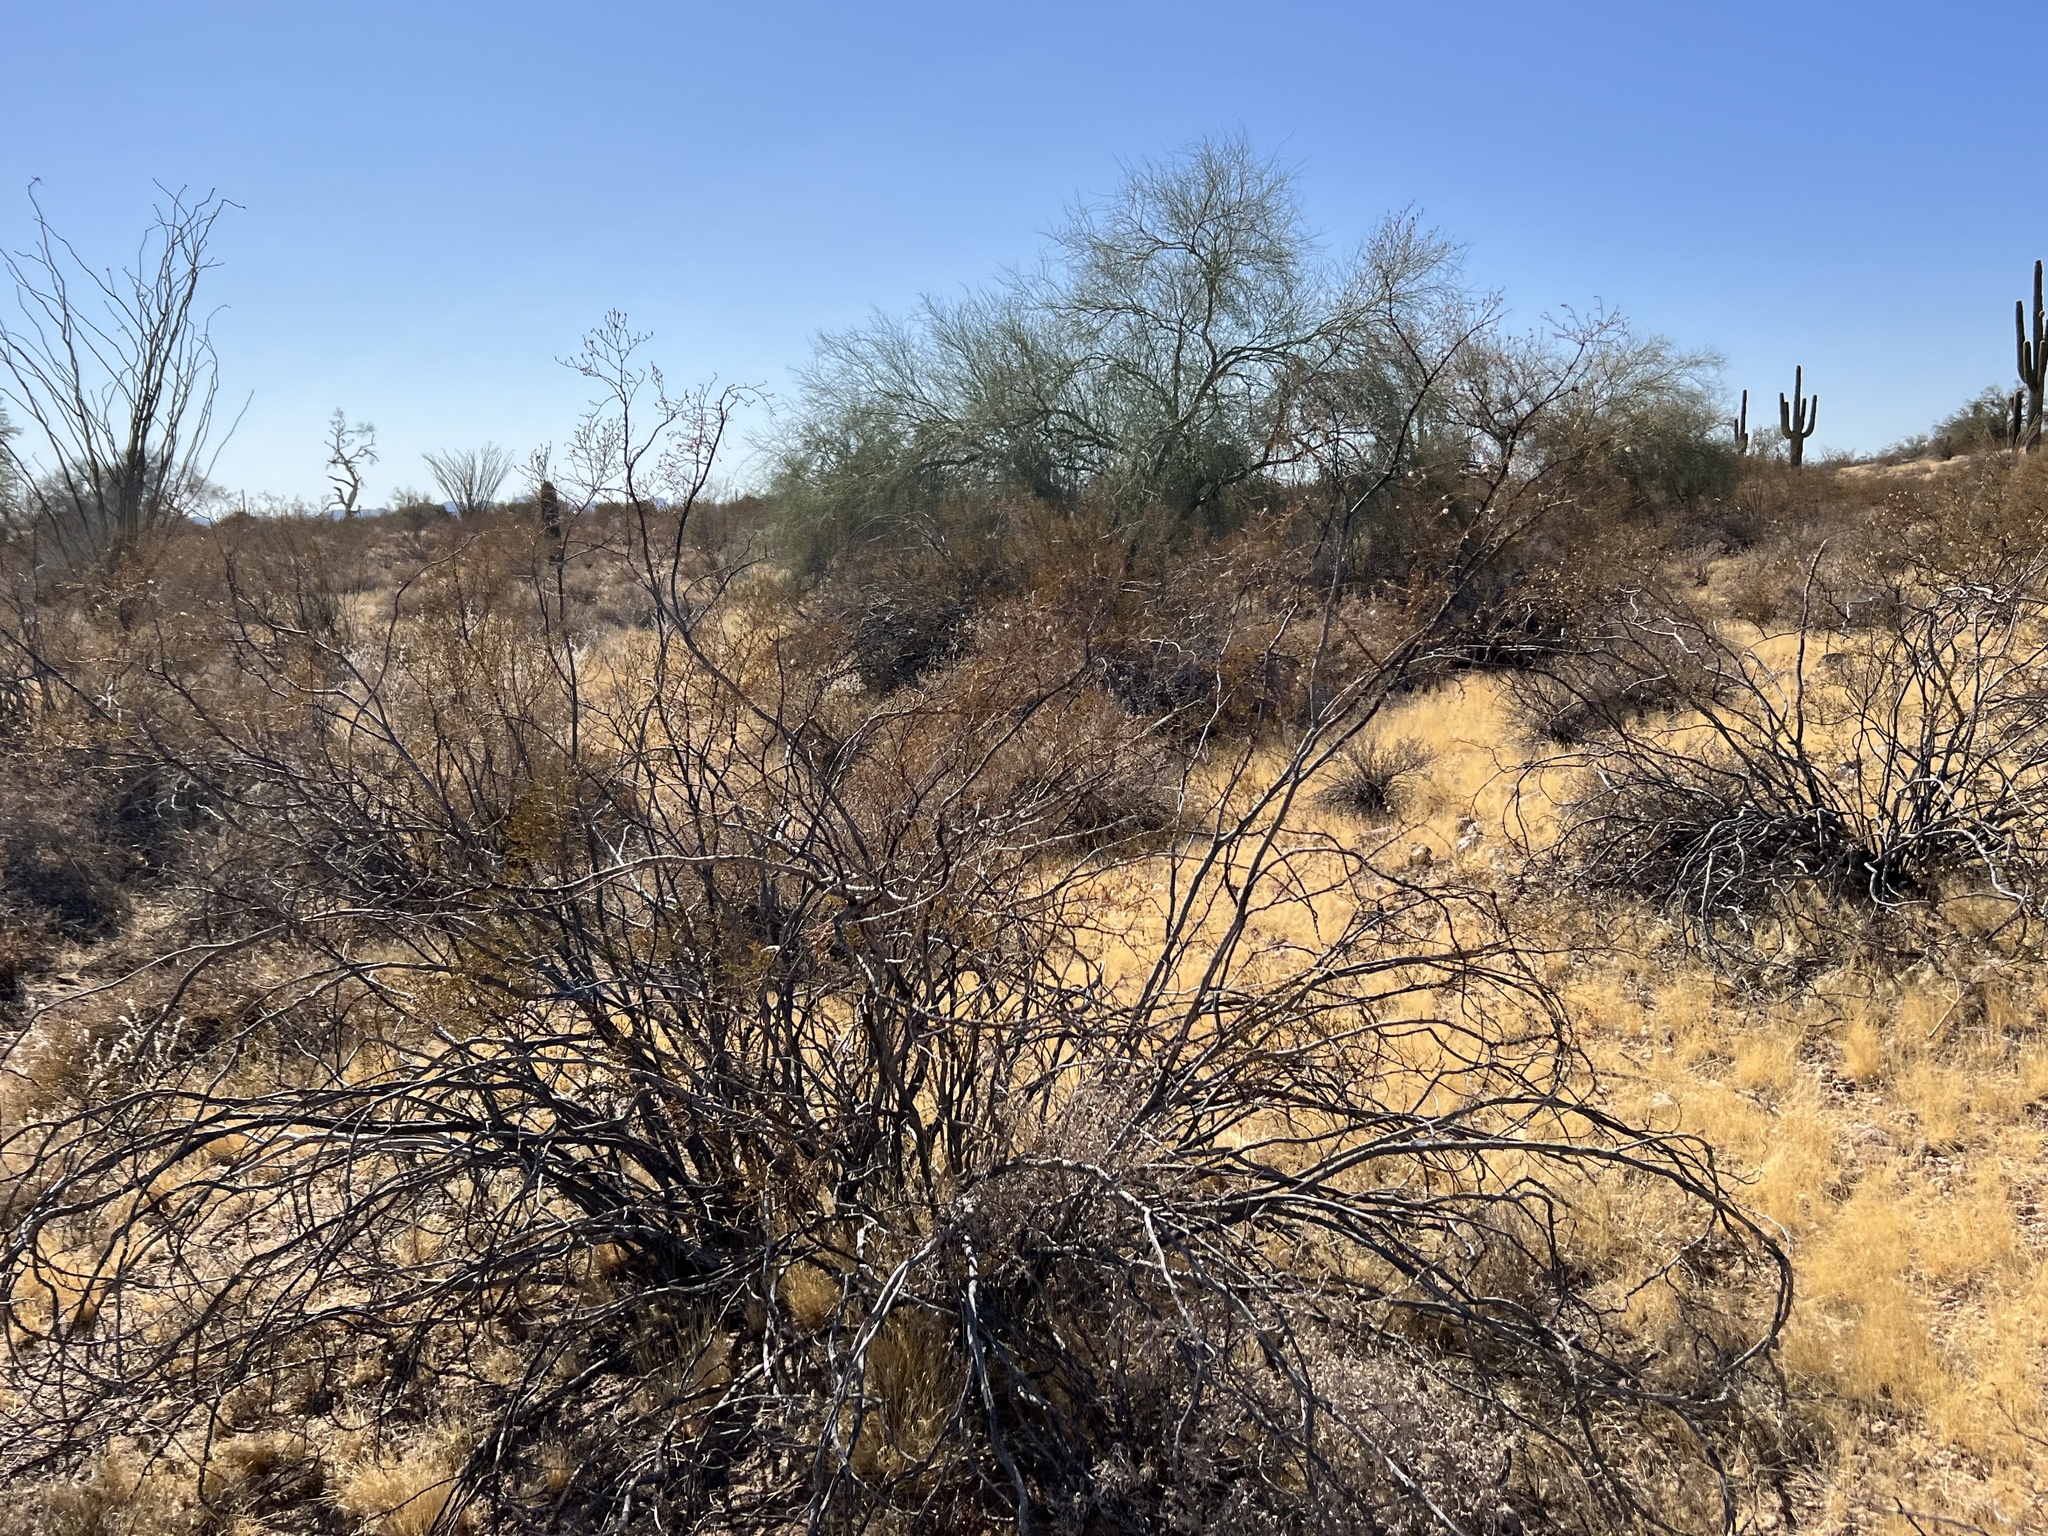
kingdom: Plantae
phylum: Tracheophyta
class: Magnoliopsida
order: Zygophyllales
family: Zygophyllaceae
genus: Larrea
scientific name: Larrea tridentata
